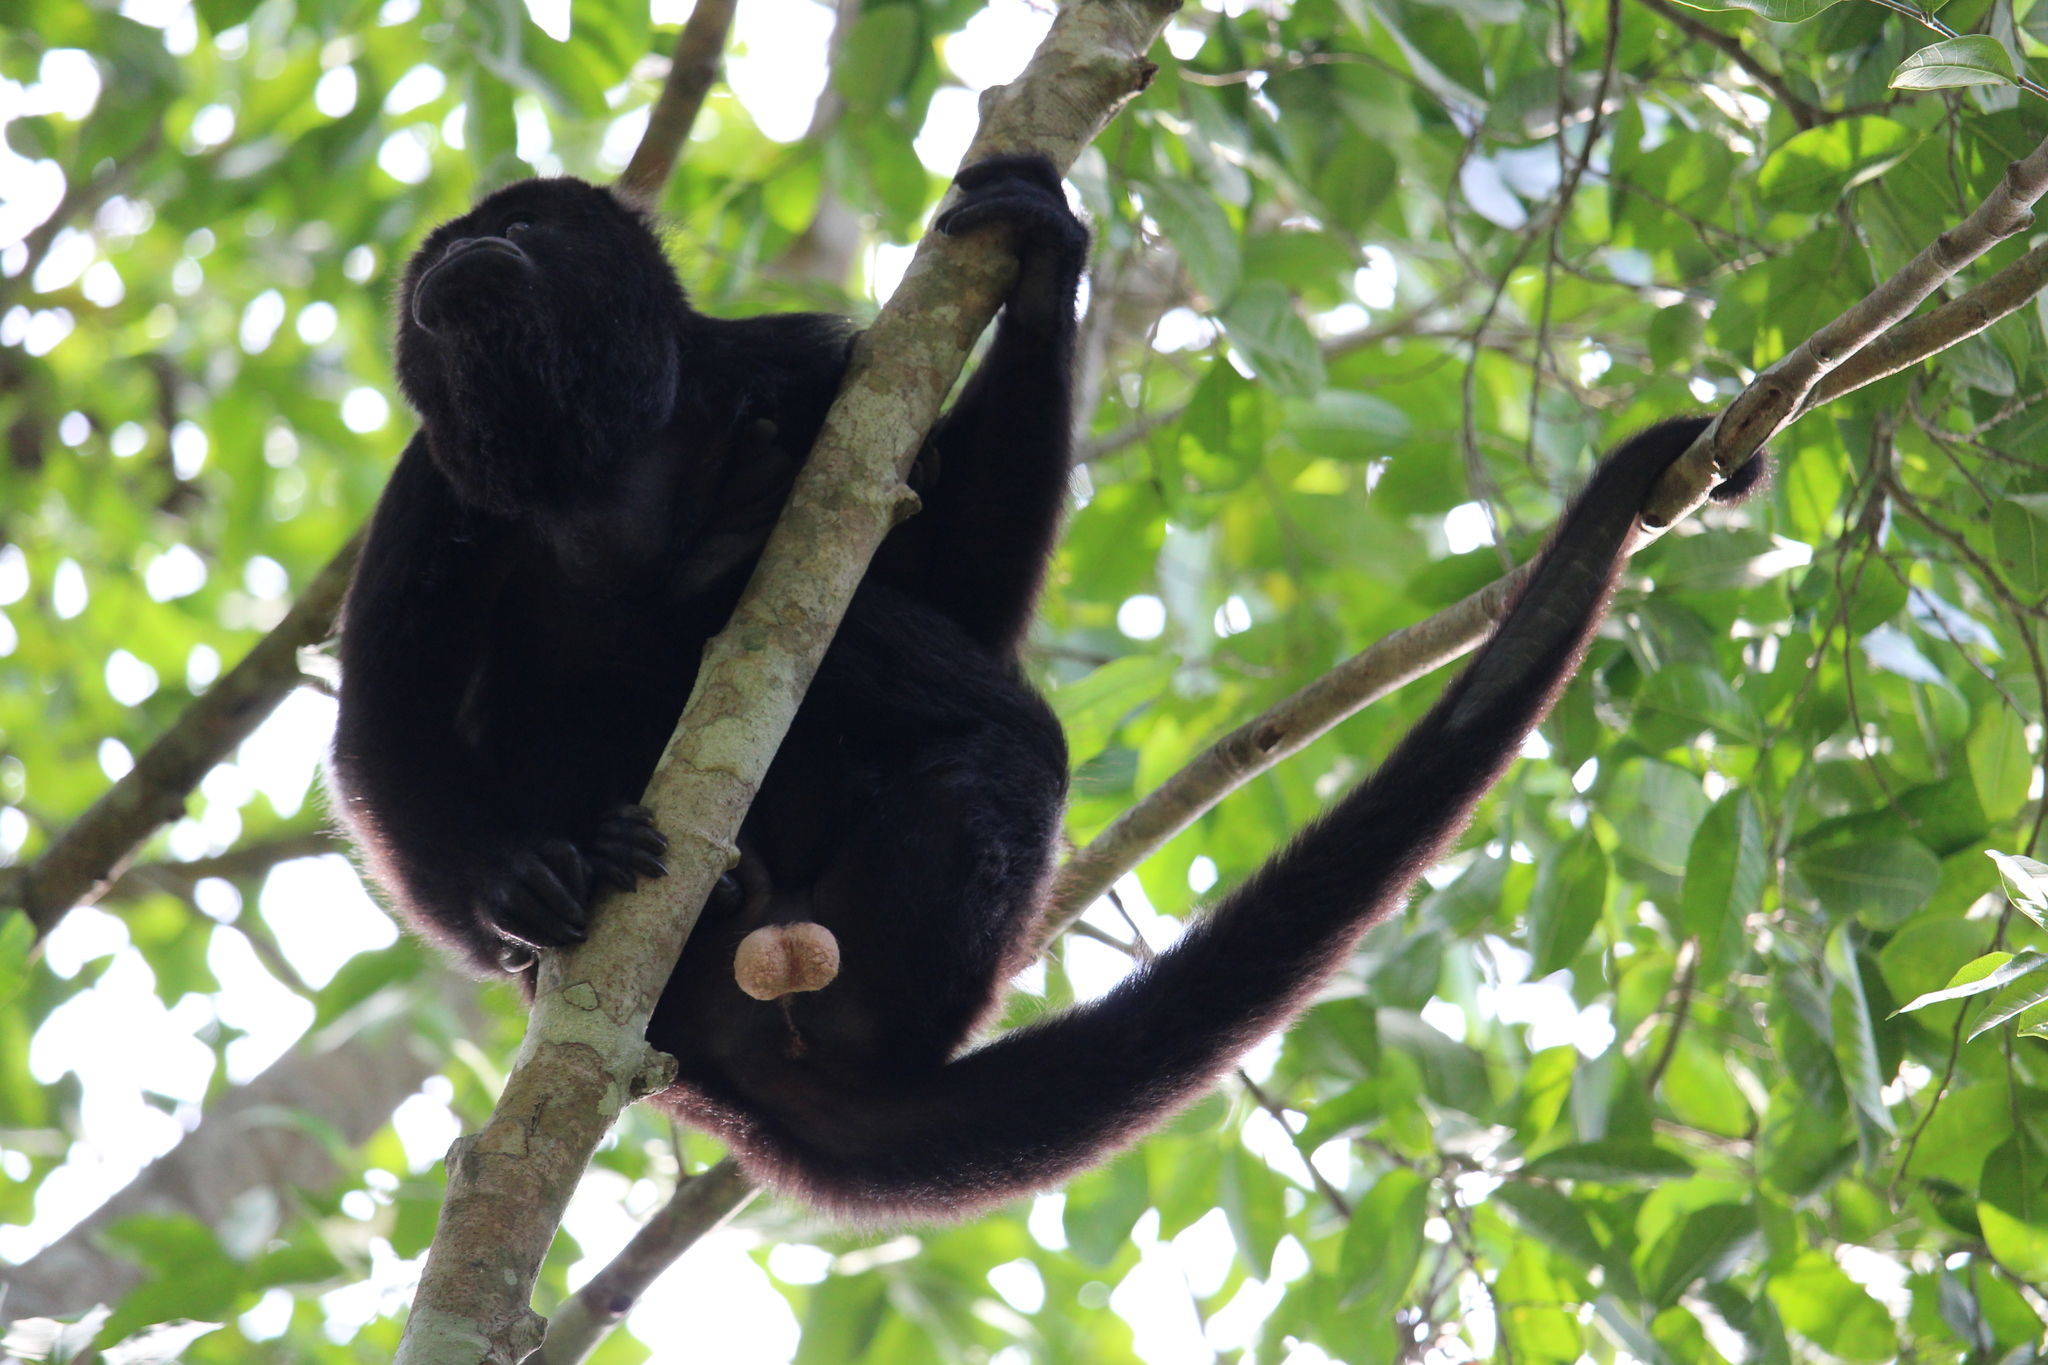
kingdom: Animalia
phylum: Chordata
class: Mammalia
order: Primates
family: Atelidae
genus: Alouatta
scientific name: Alouatta pigra
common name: Guatemalan black howler
